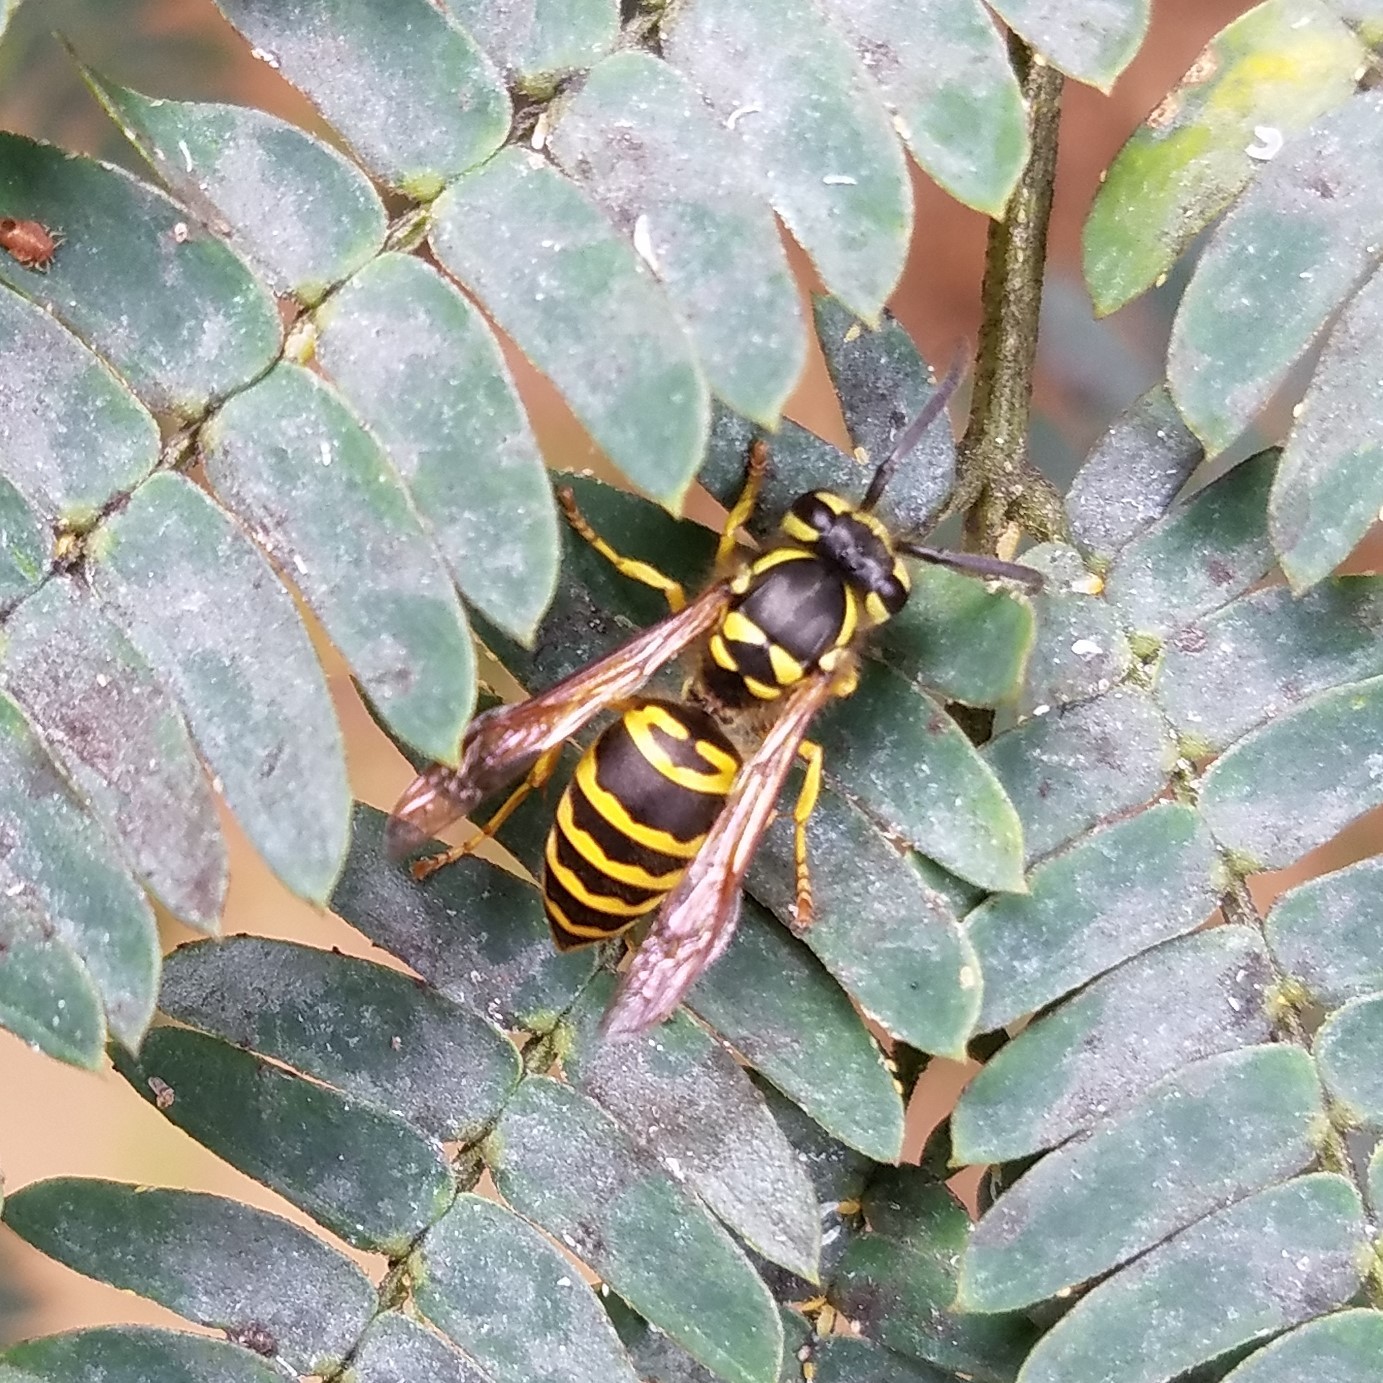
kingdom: Animalia
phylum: Arthropoda
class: Insecta
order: Hymenoptera
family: Vespidae
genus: Vespula
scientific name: Vespula maculifrons
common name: Eastern yellowjacket
